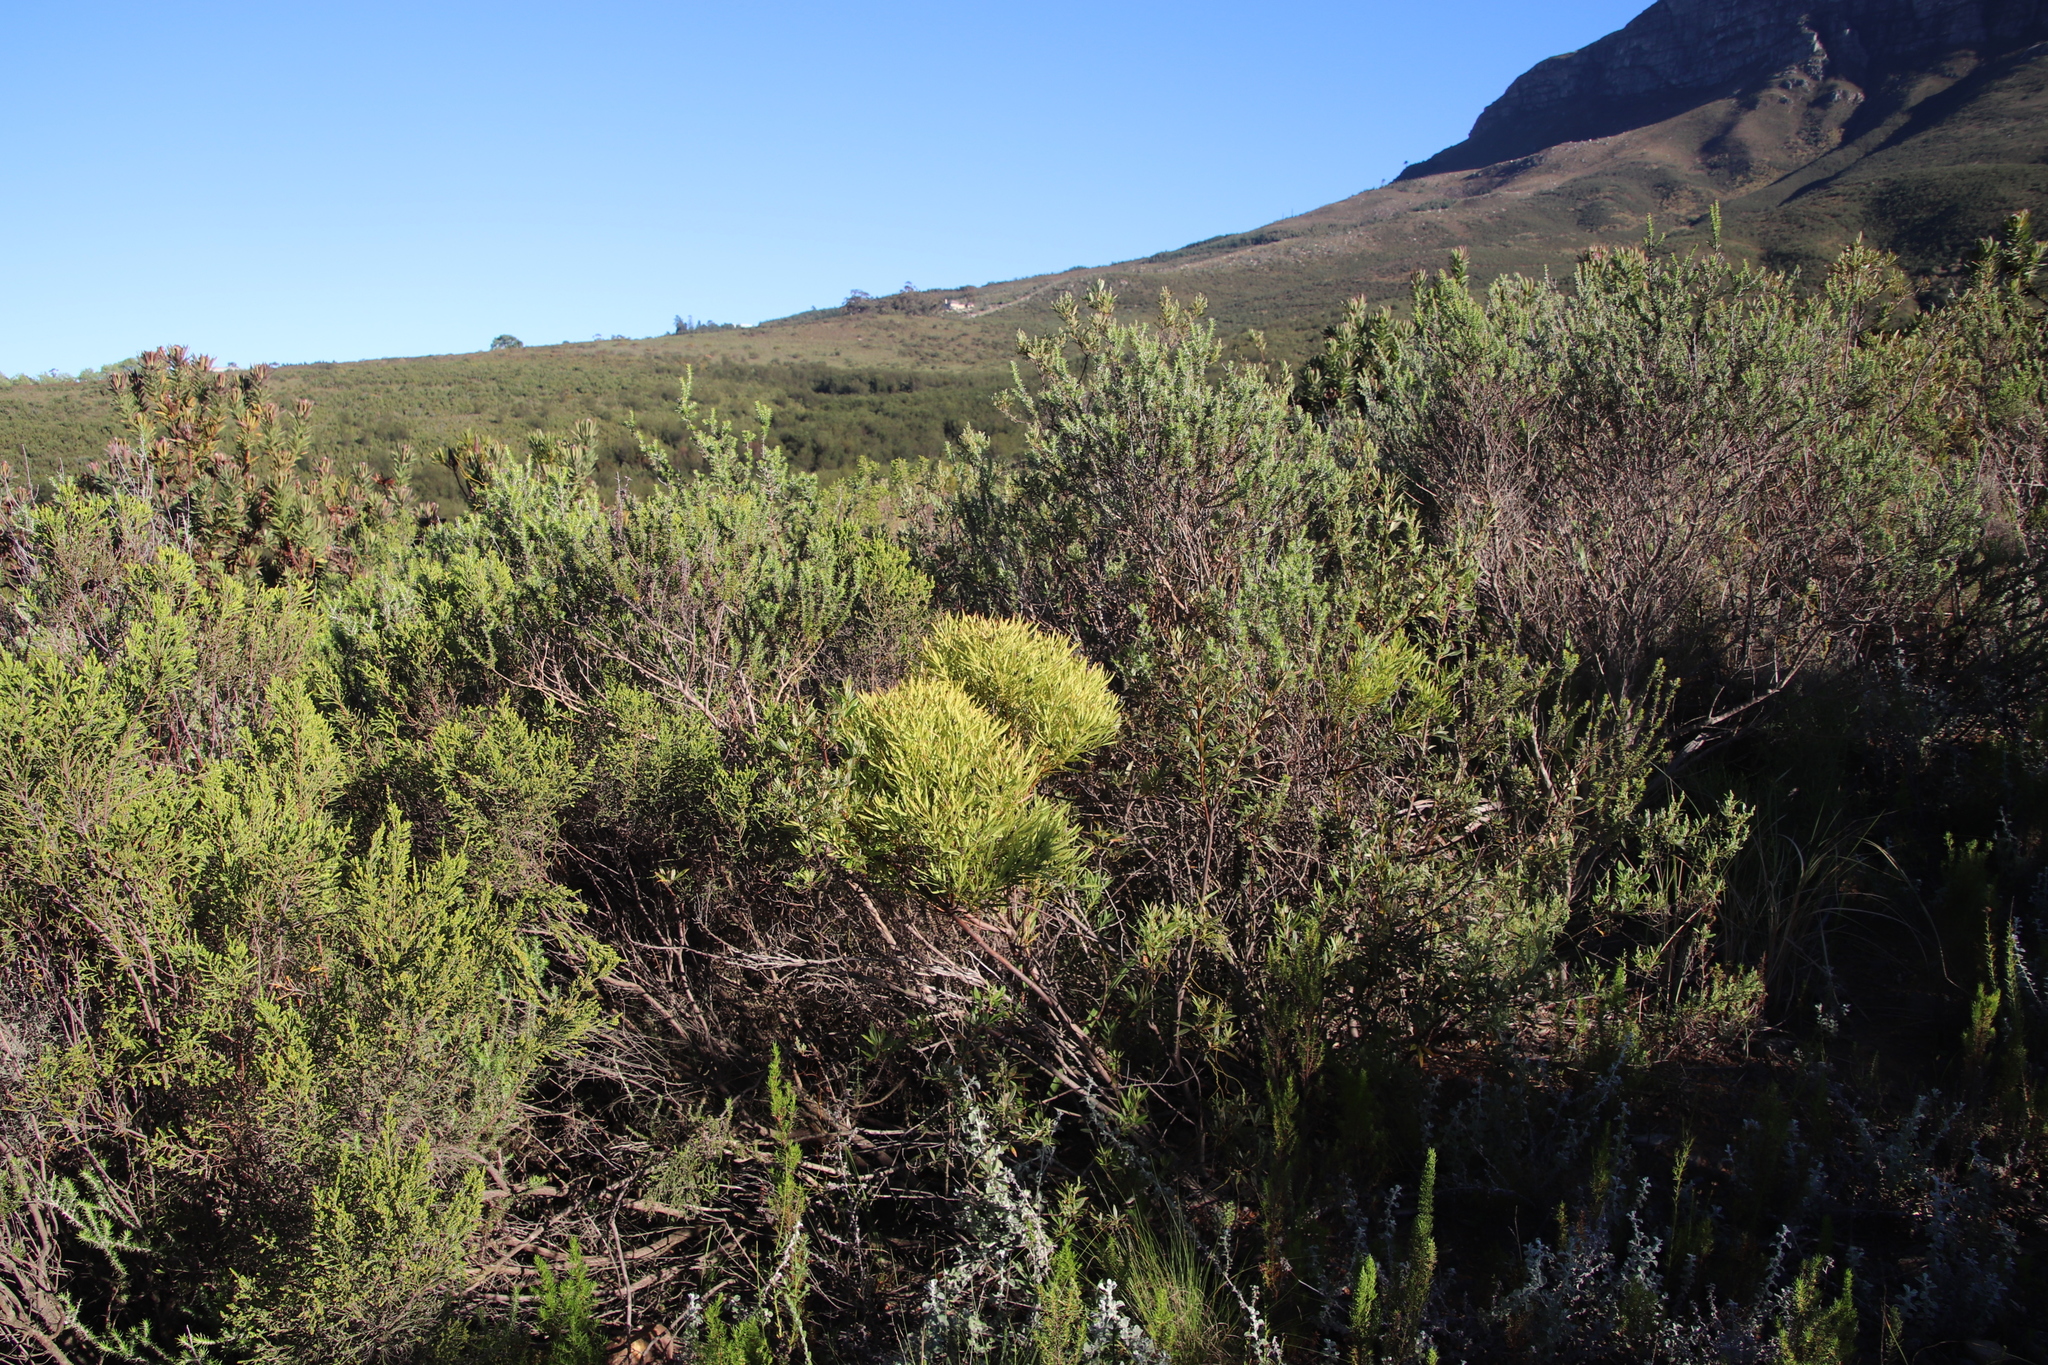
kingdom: Plantae
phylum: Tracheophyta
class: Magnoliopsida
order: Proteales
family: Proteaceae
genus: Leucadendron
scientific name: Leucadendron salignum
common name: Common sunshine conebush
